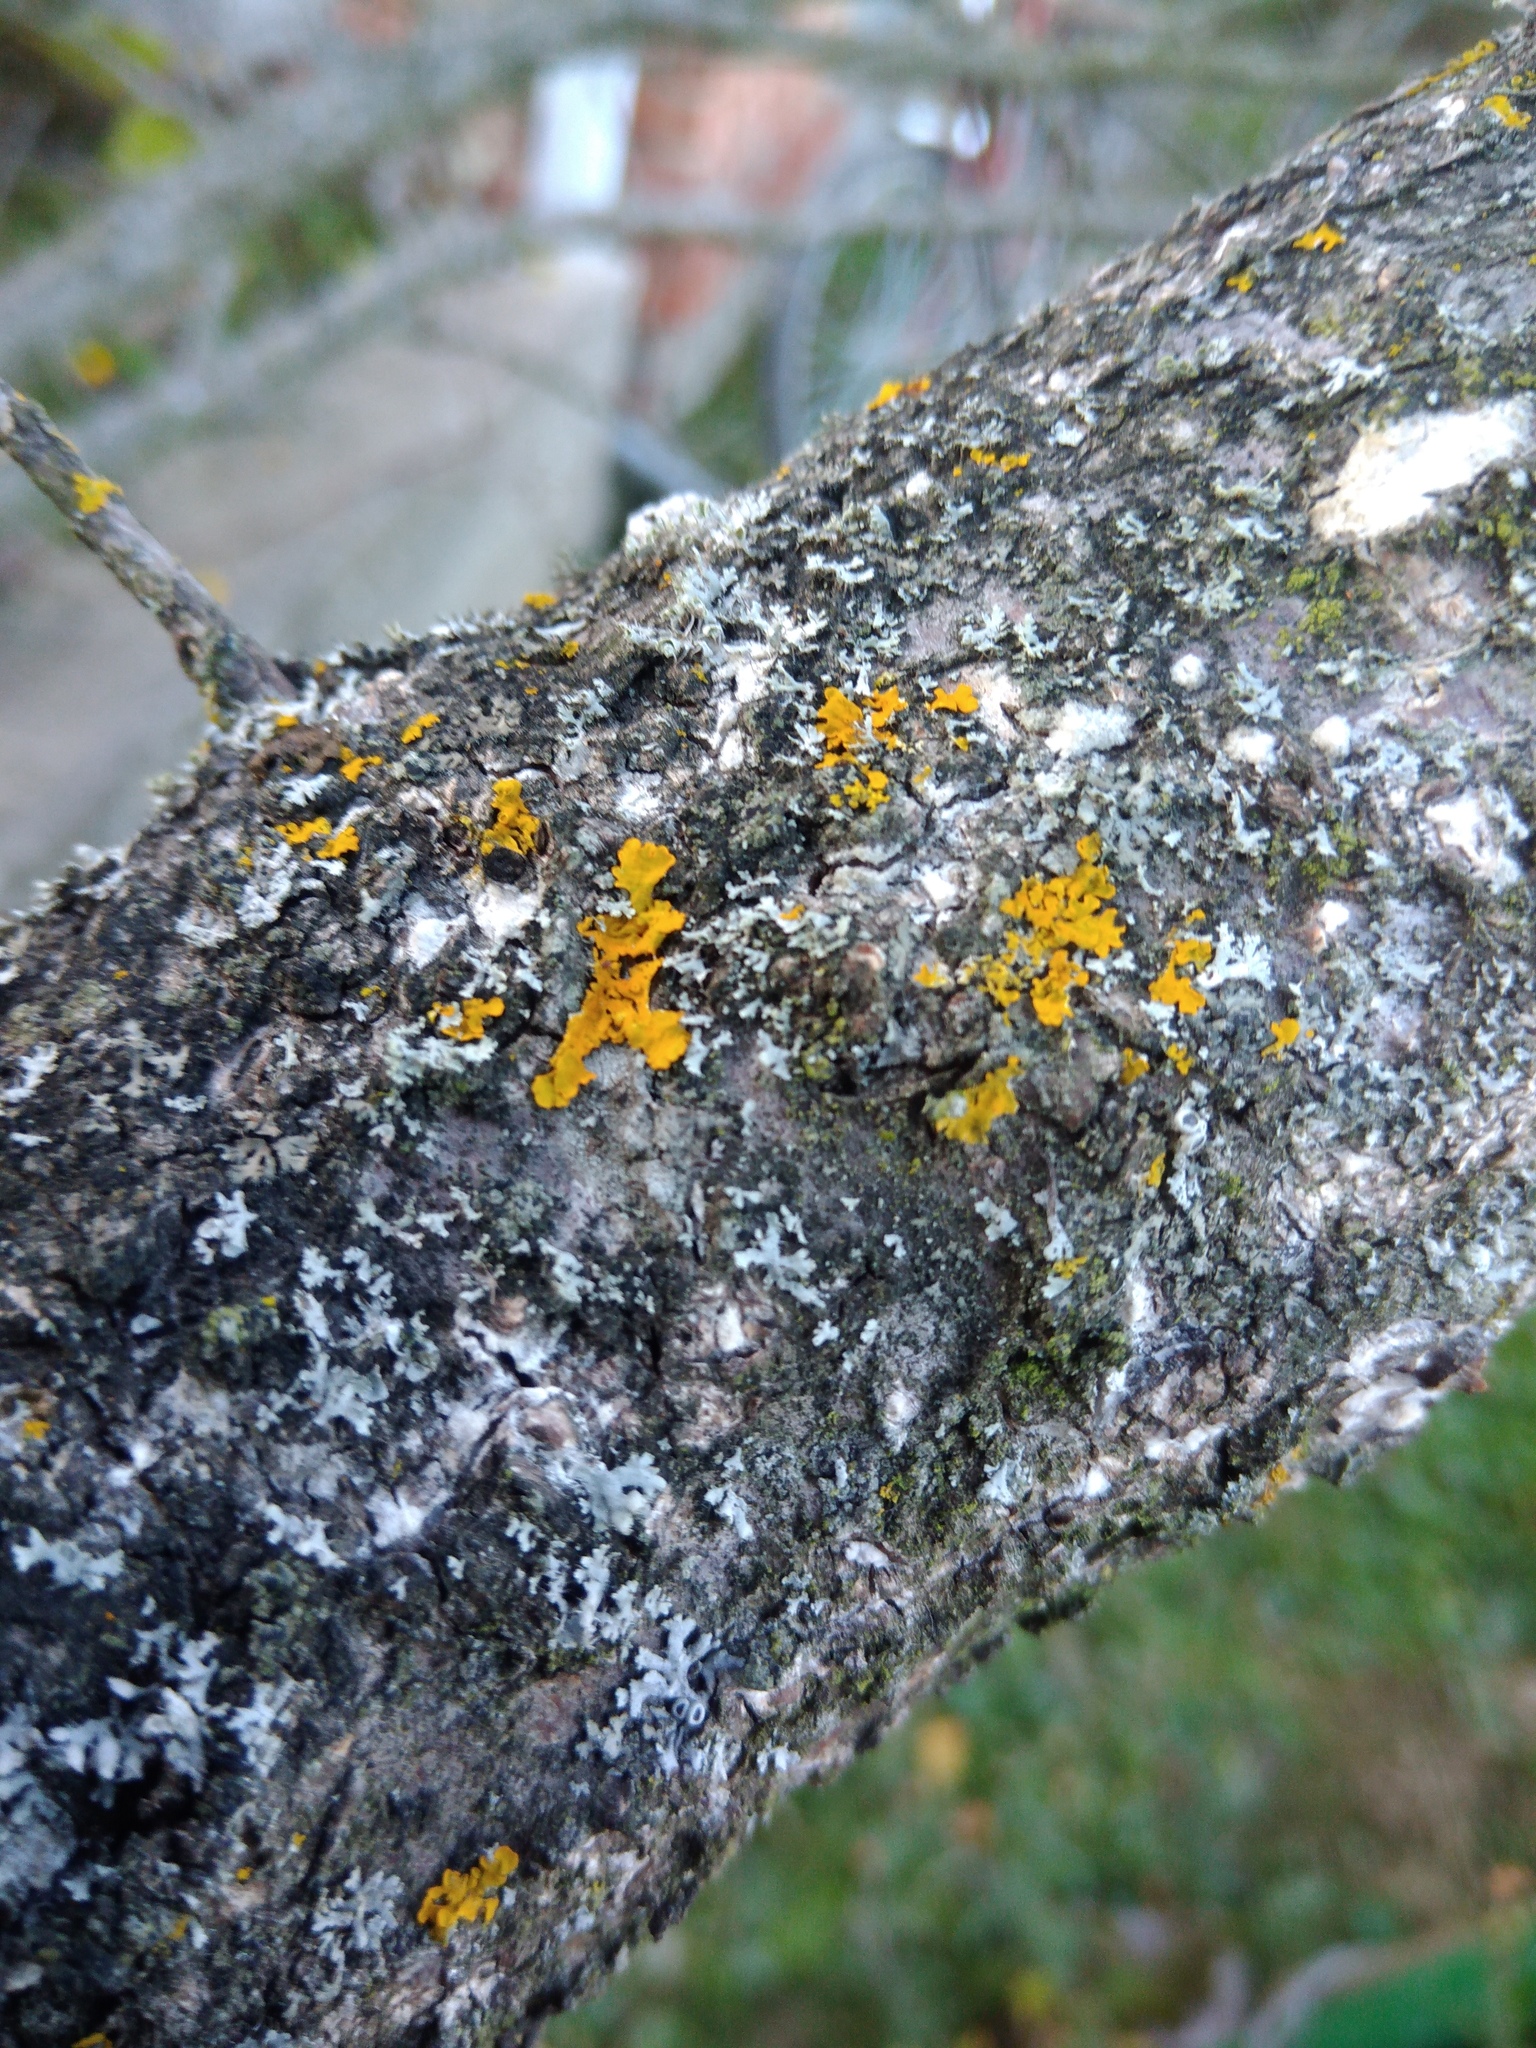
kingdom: Fungi
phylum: Ascomycota
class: Lecanoromycetes
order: Teloschistales
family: Teloschistaceae
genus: Xanthoria
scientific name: Xanthoria parietina
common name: Common orange lichen
